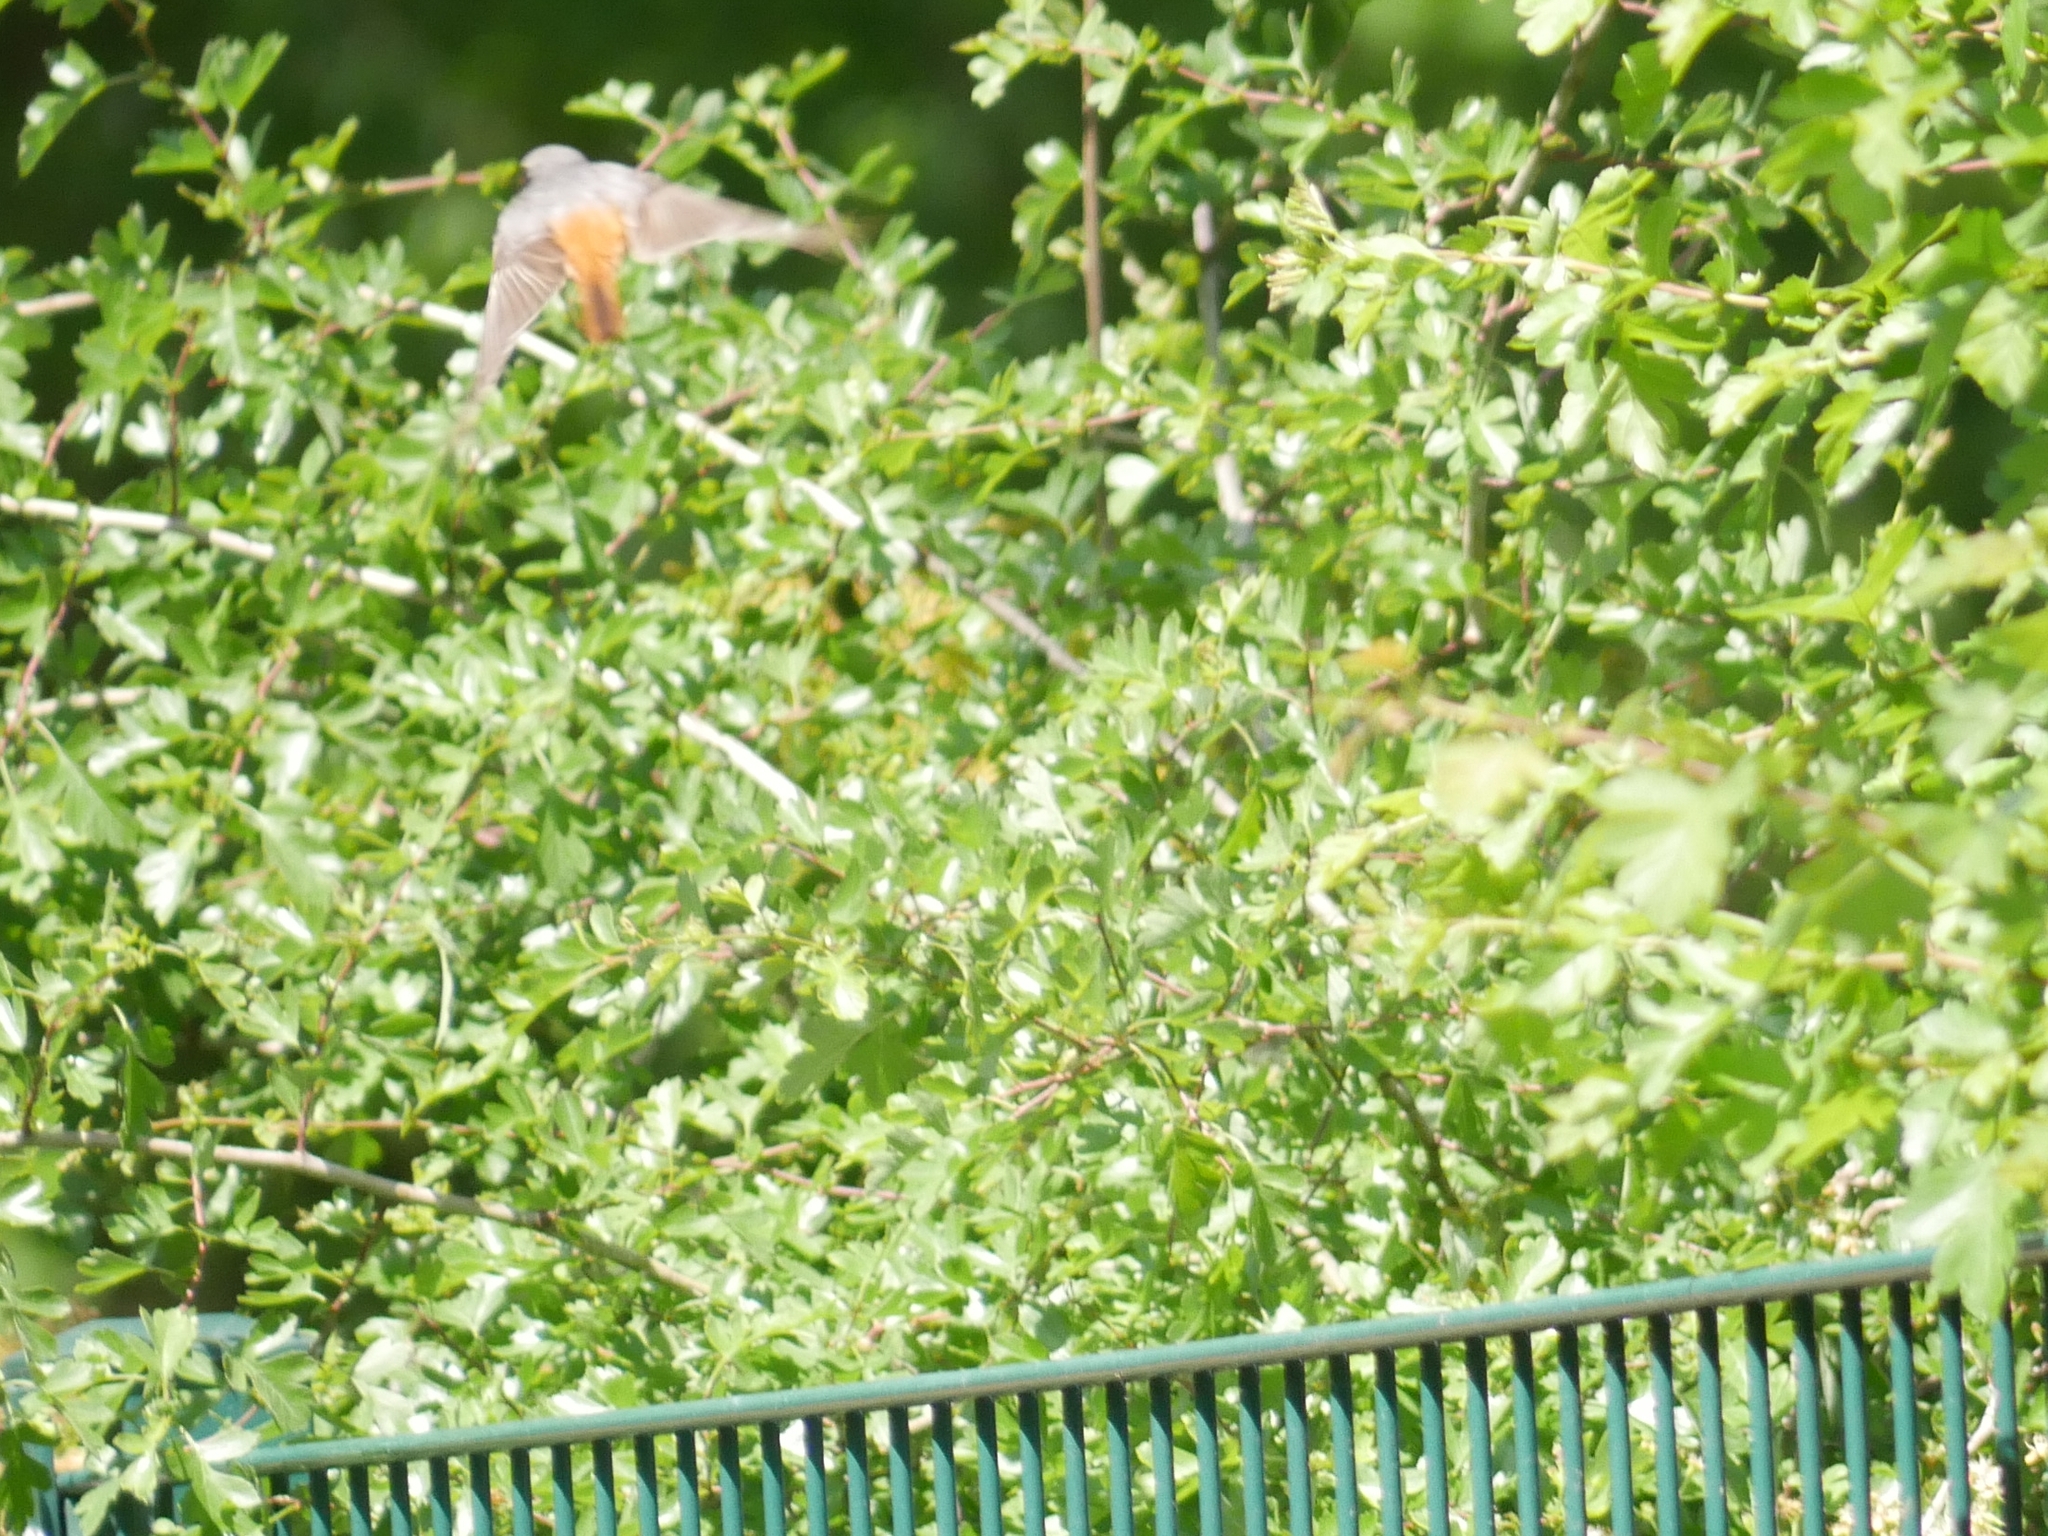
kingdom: Animalia
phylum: Chordata
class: Aves
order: Passeriformes
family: Muscicapidae
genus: Phoenicurus
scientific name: Phoenicurus phoenicurus
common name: Common redstart
